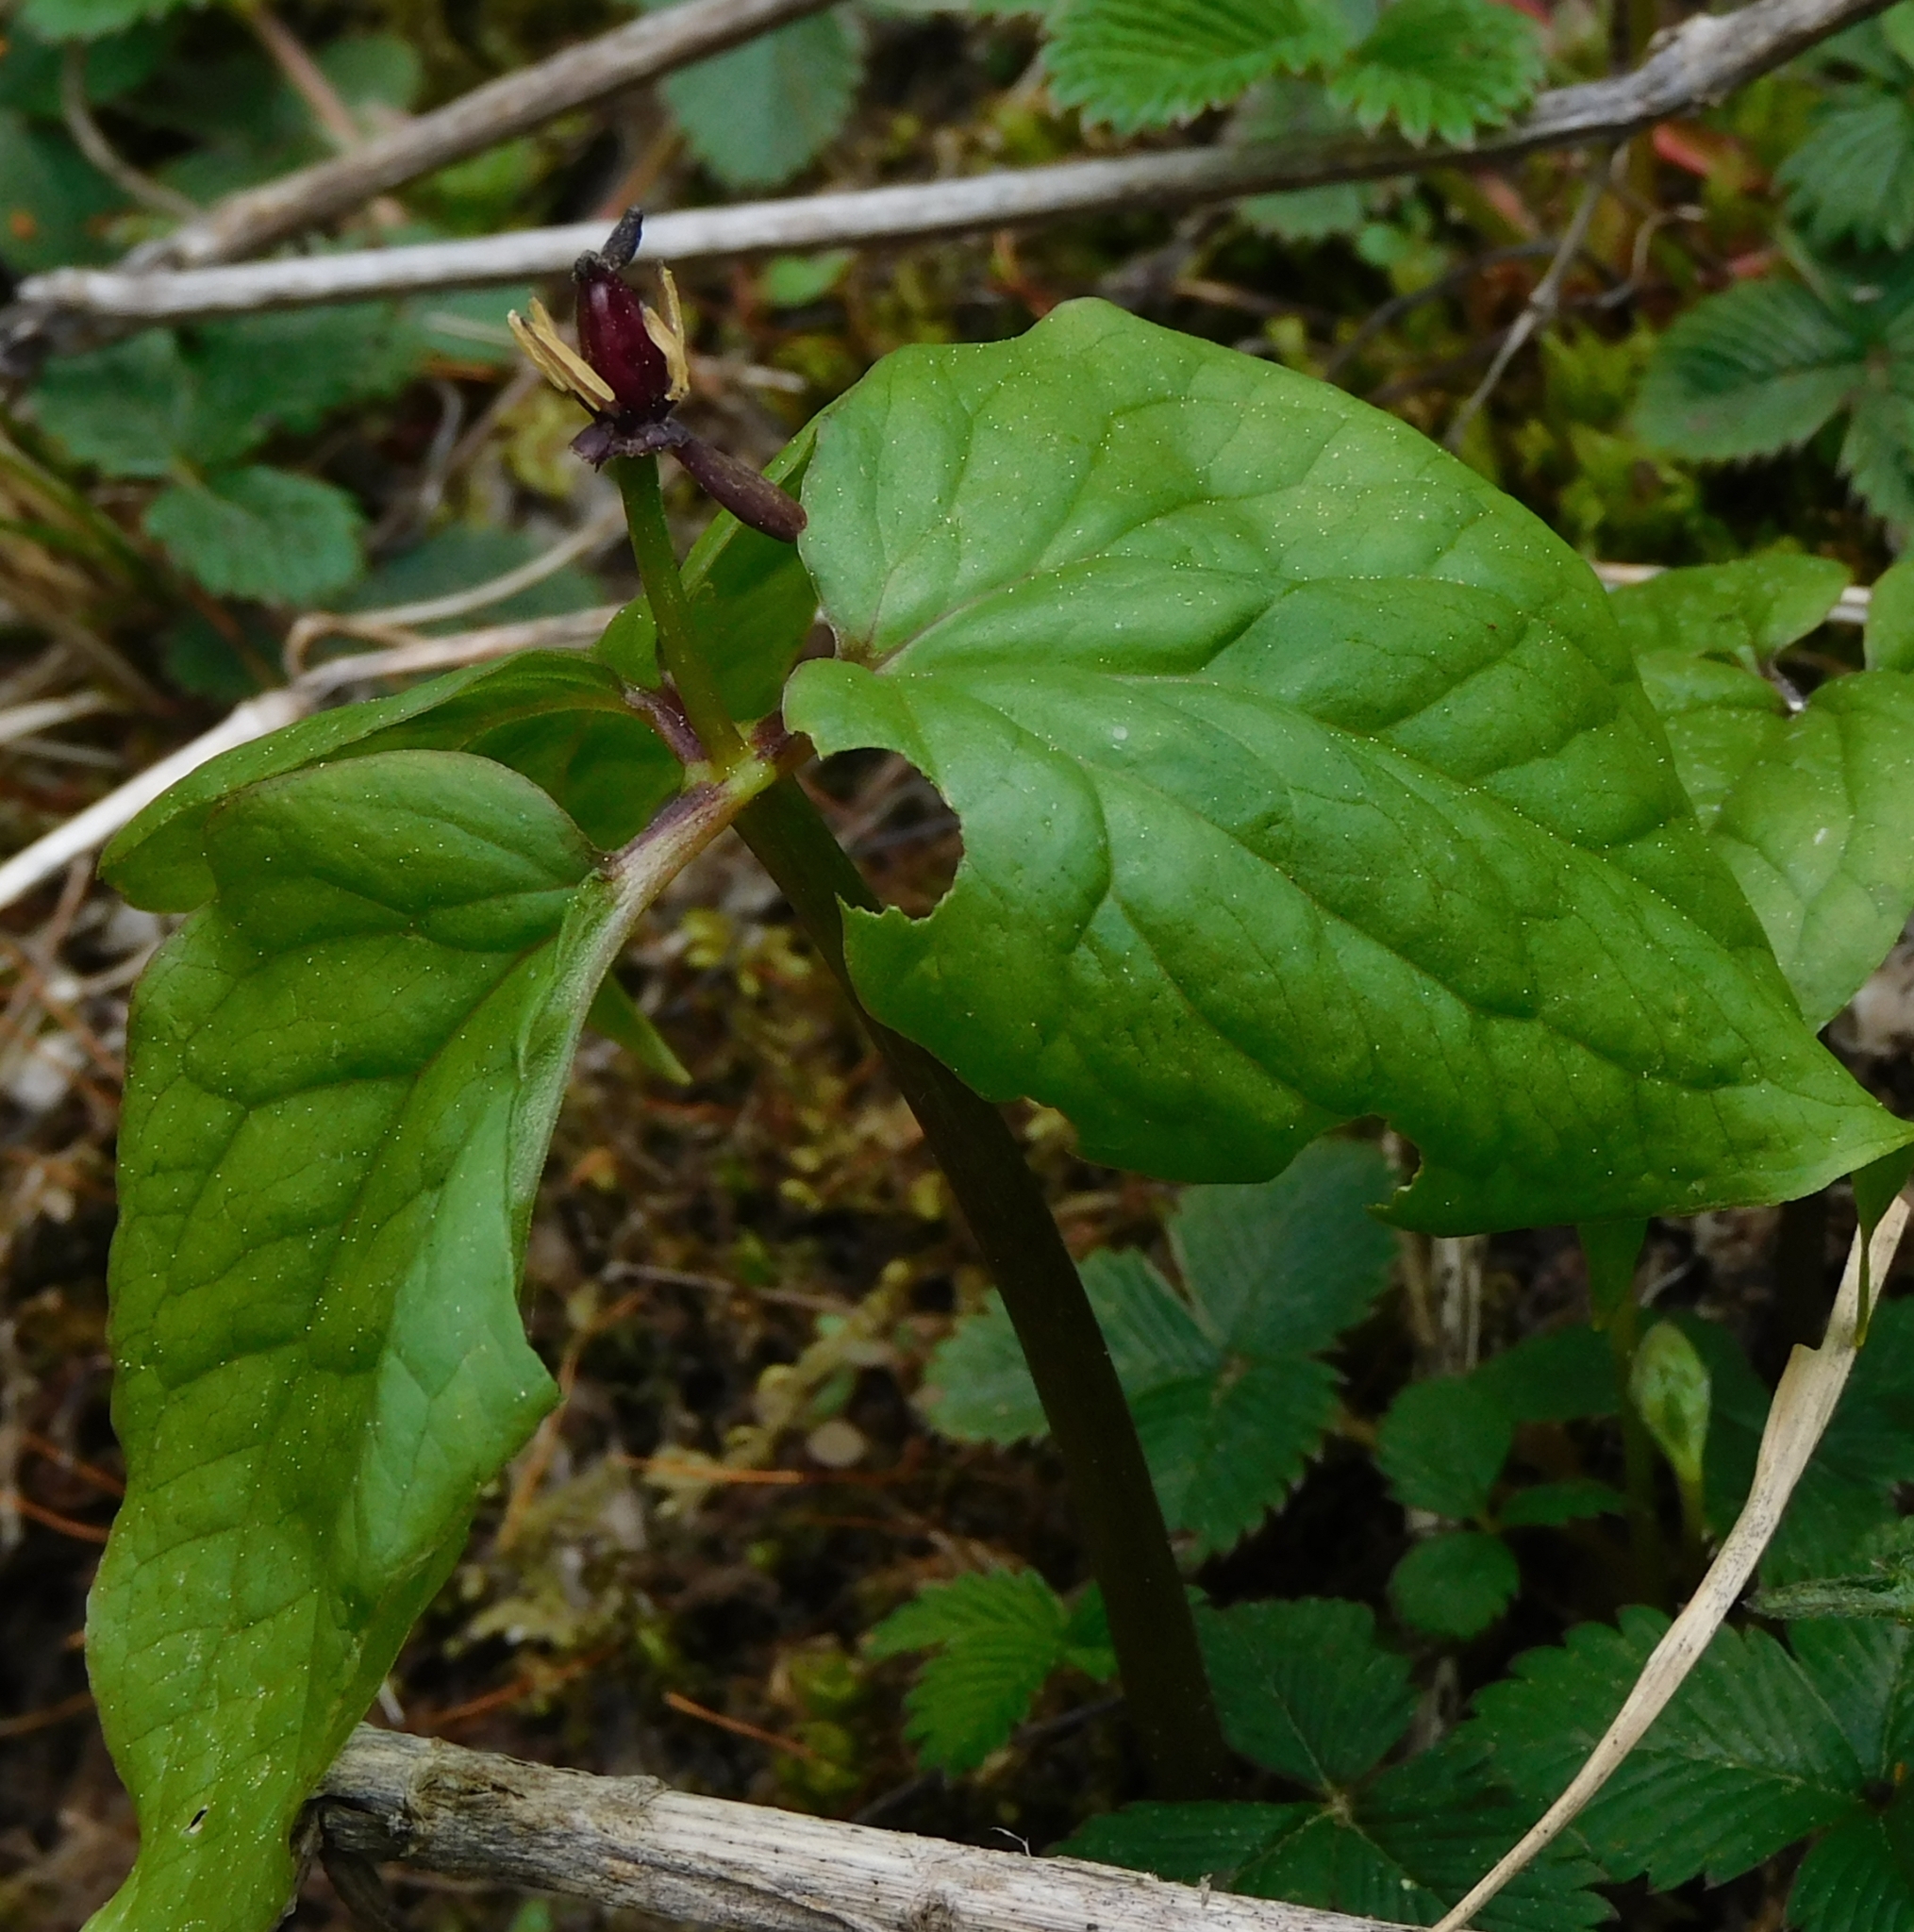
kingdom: Plantae
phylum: Tracheophyta
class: Liliopsida
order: Liliales
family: Melanthiaceae
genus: Trillium
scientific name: Trillium govanianum
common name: Himalayan trillium
